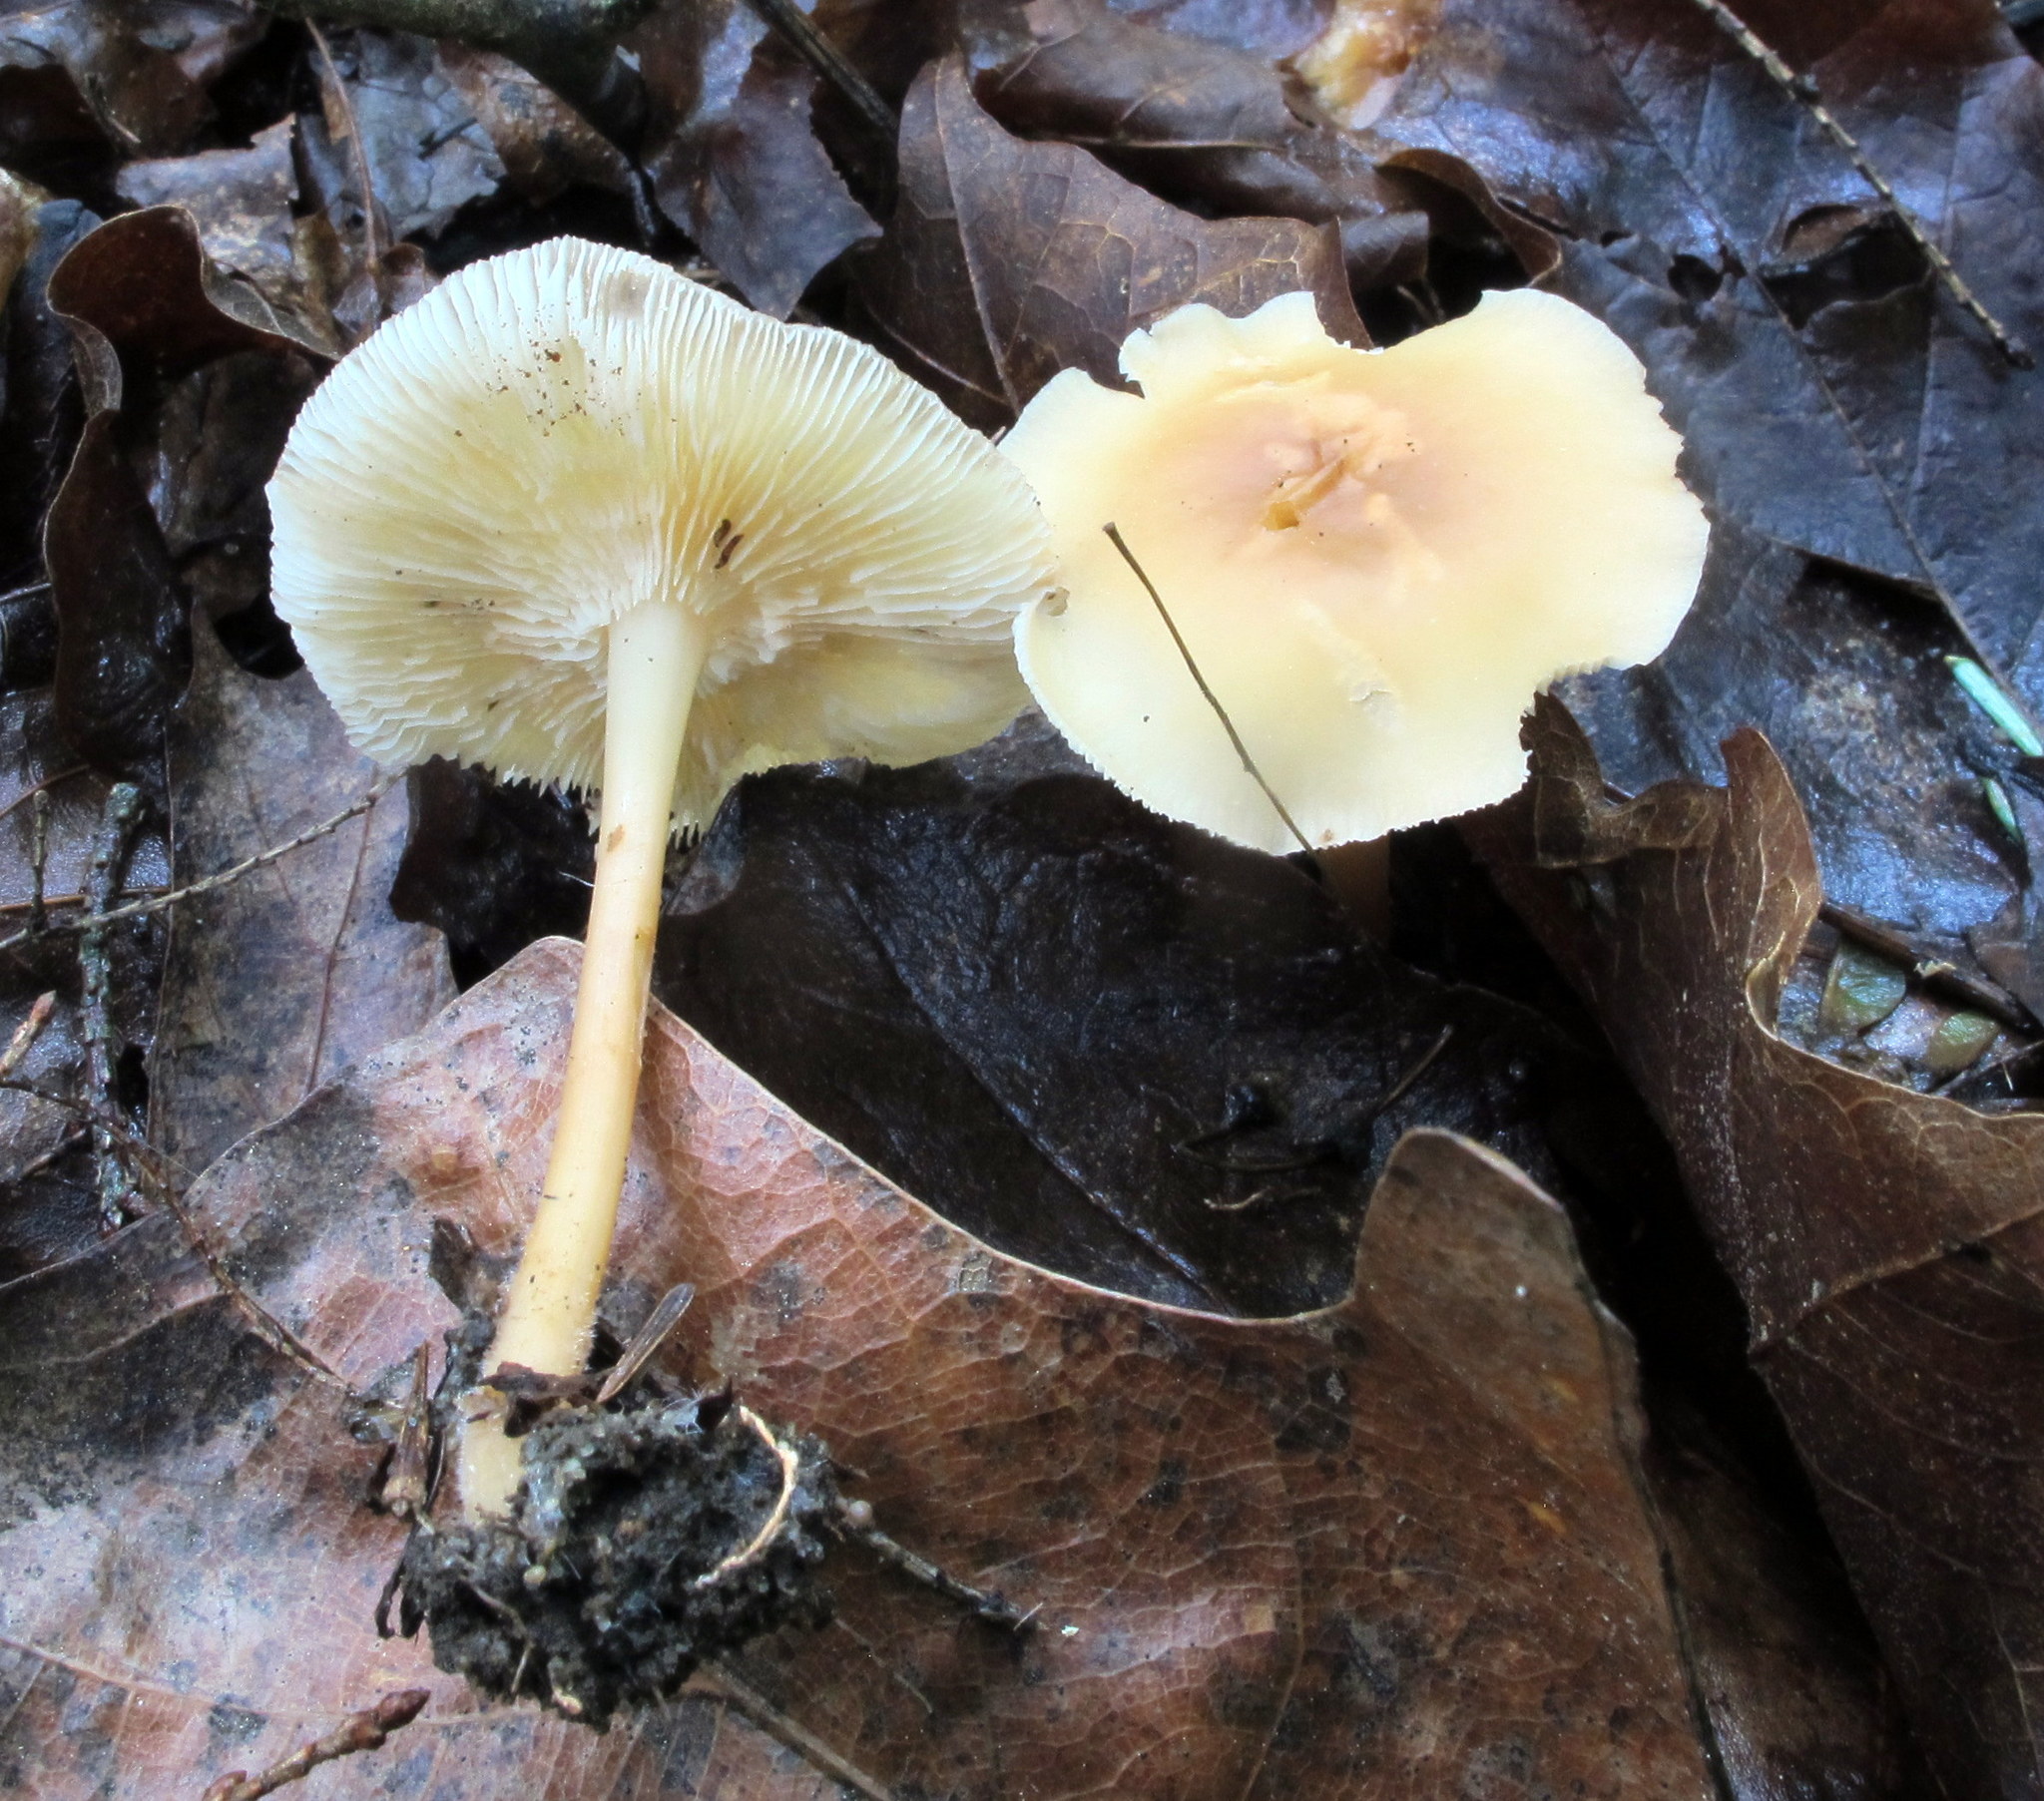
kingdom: Fungi
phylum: Basidiomycota
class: Agaricomycetes
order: Agaricales
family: Omphalotaceae
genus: Gymnopus
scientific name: Gymnopus earleae
